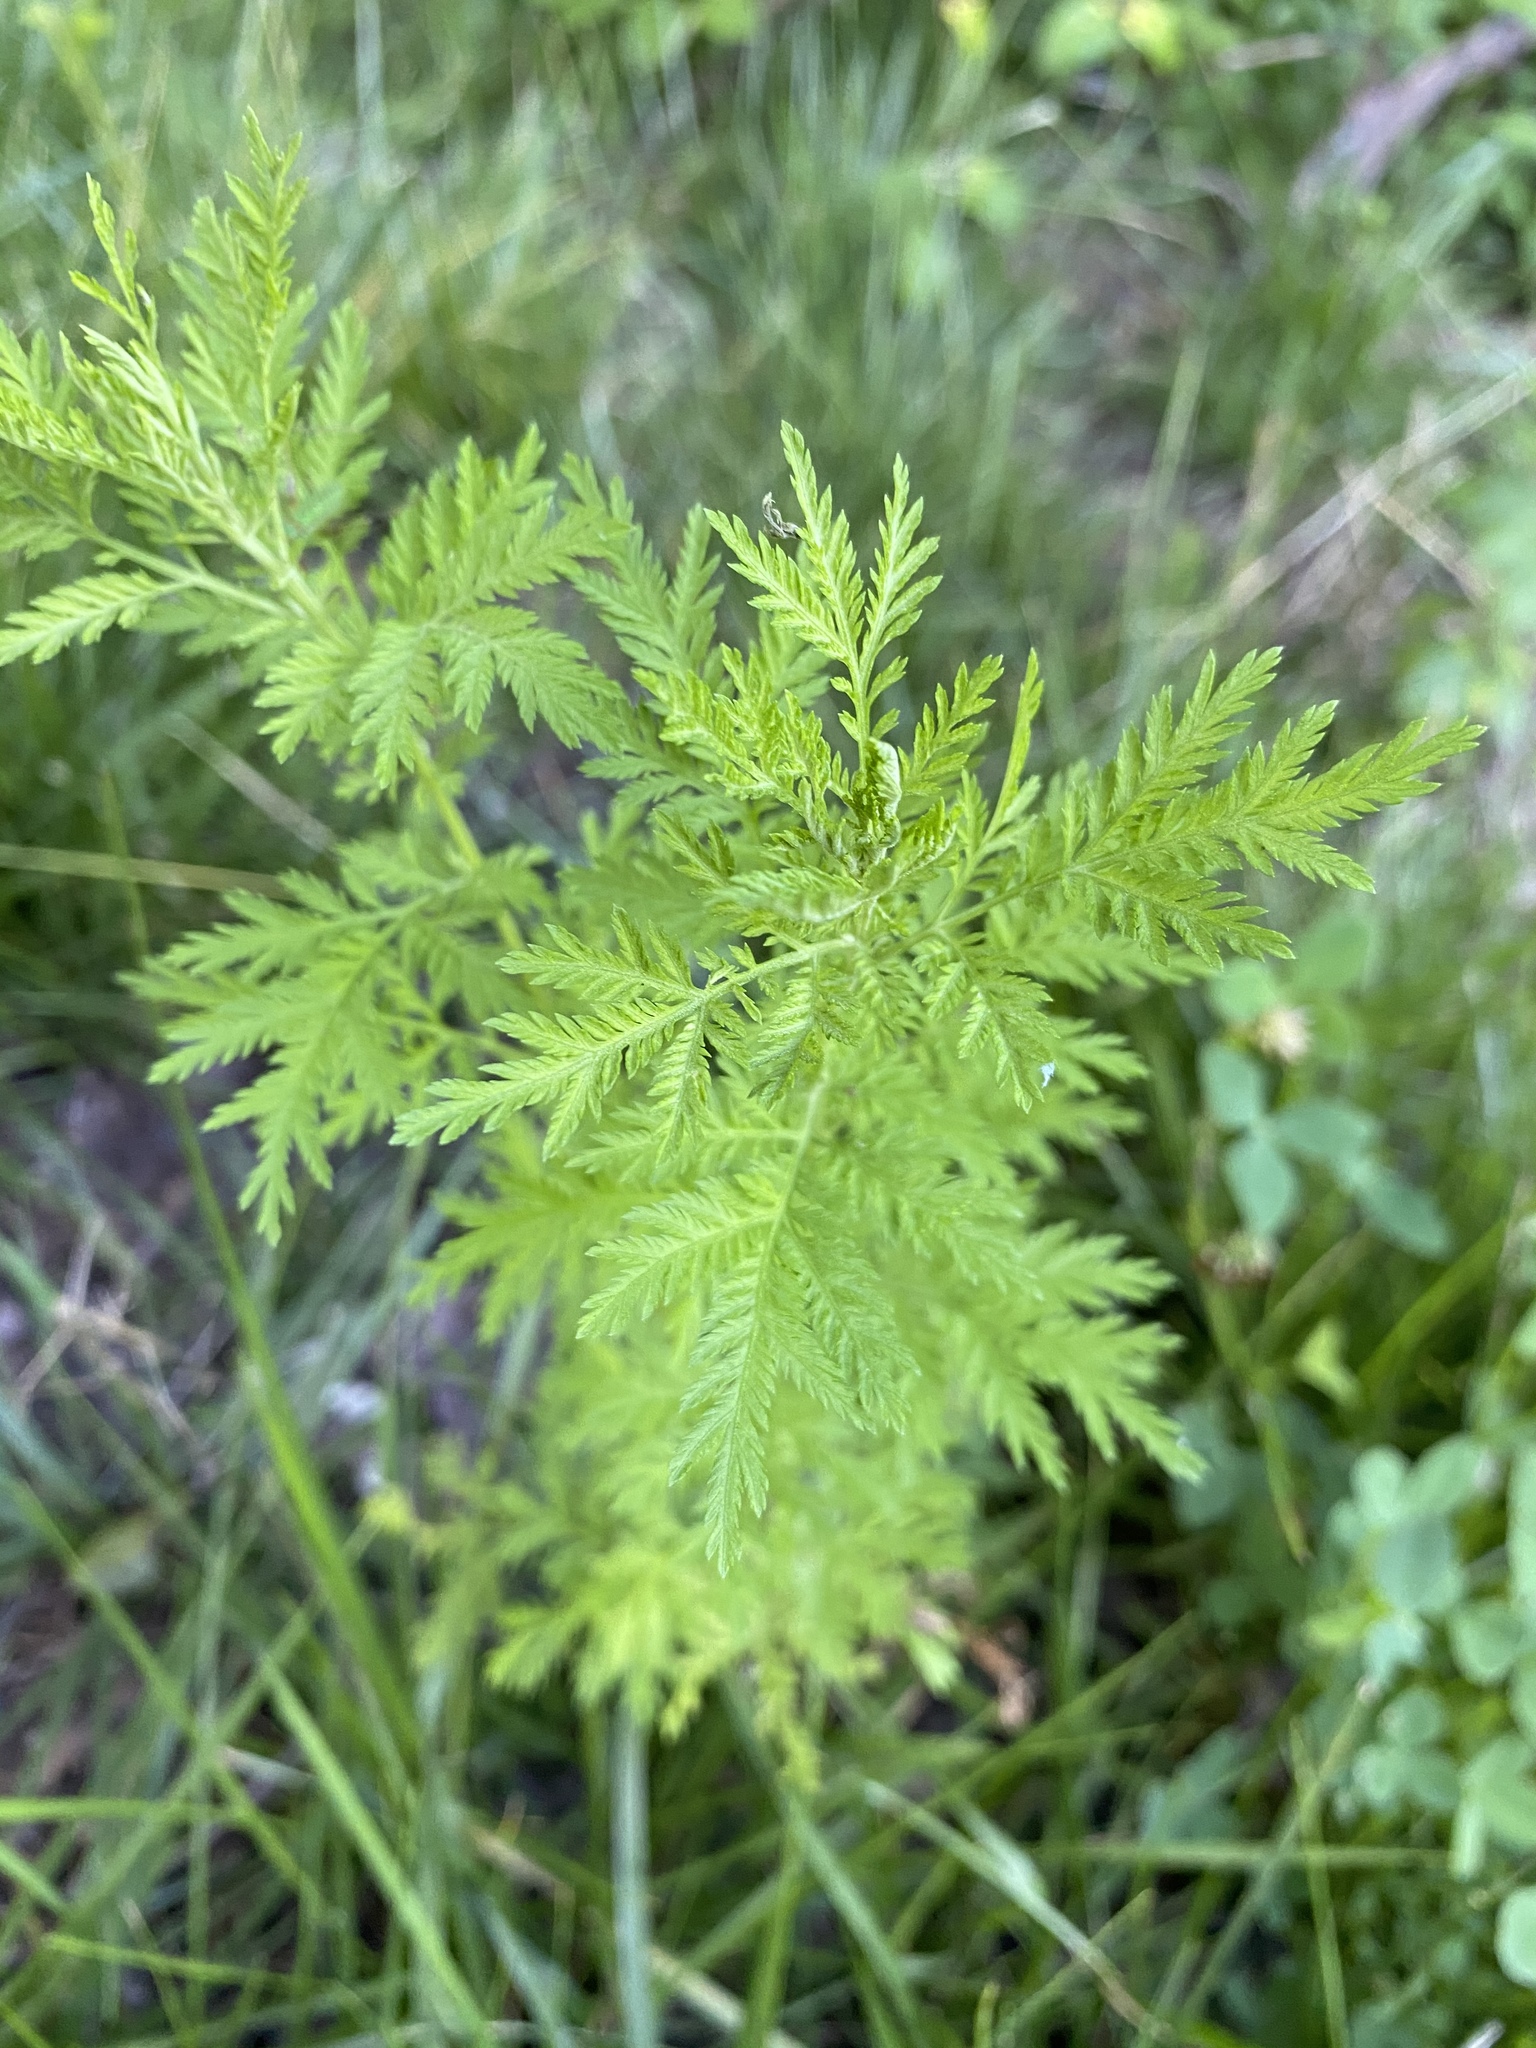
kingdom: Plantae
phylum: Tracheophyta
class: Magnoliopsida
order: Asterales
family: Asteraceae
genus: Artemisia
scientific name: Artemisia annua
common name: Sweet sagewort
